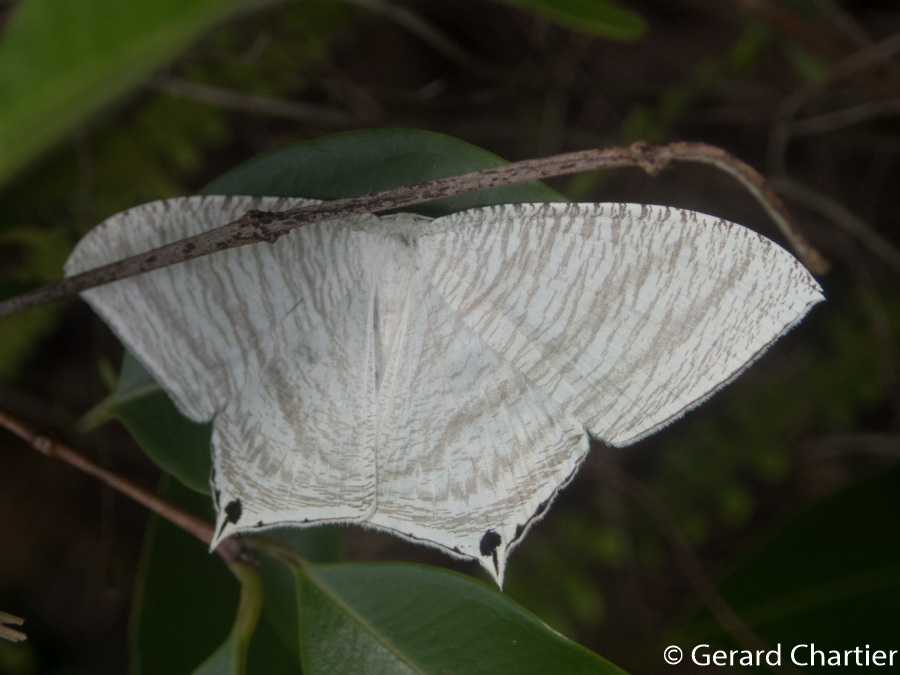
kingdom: Animalia
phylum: Arthropoda
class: Insecta
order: Lepidoptera
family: Uraniidae
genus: Micronia
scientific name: Micronia aculeata
